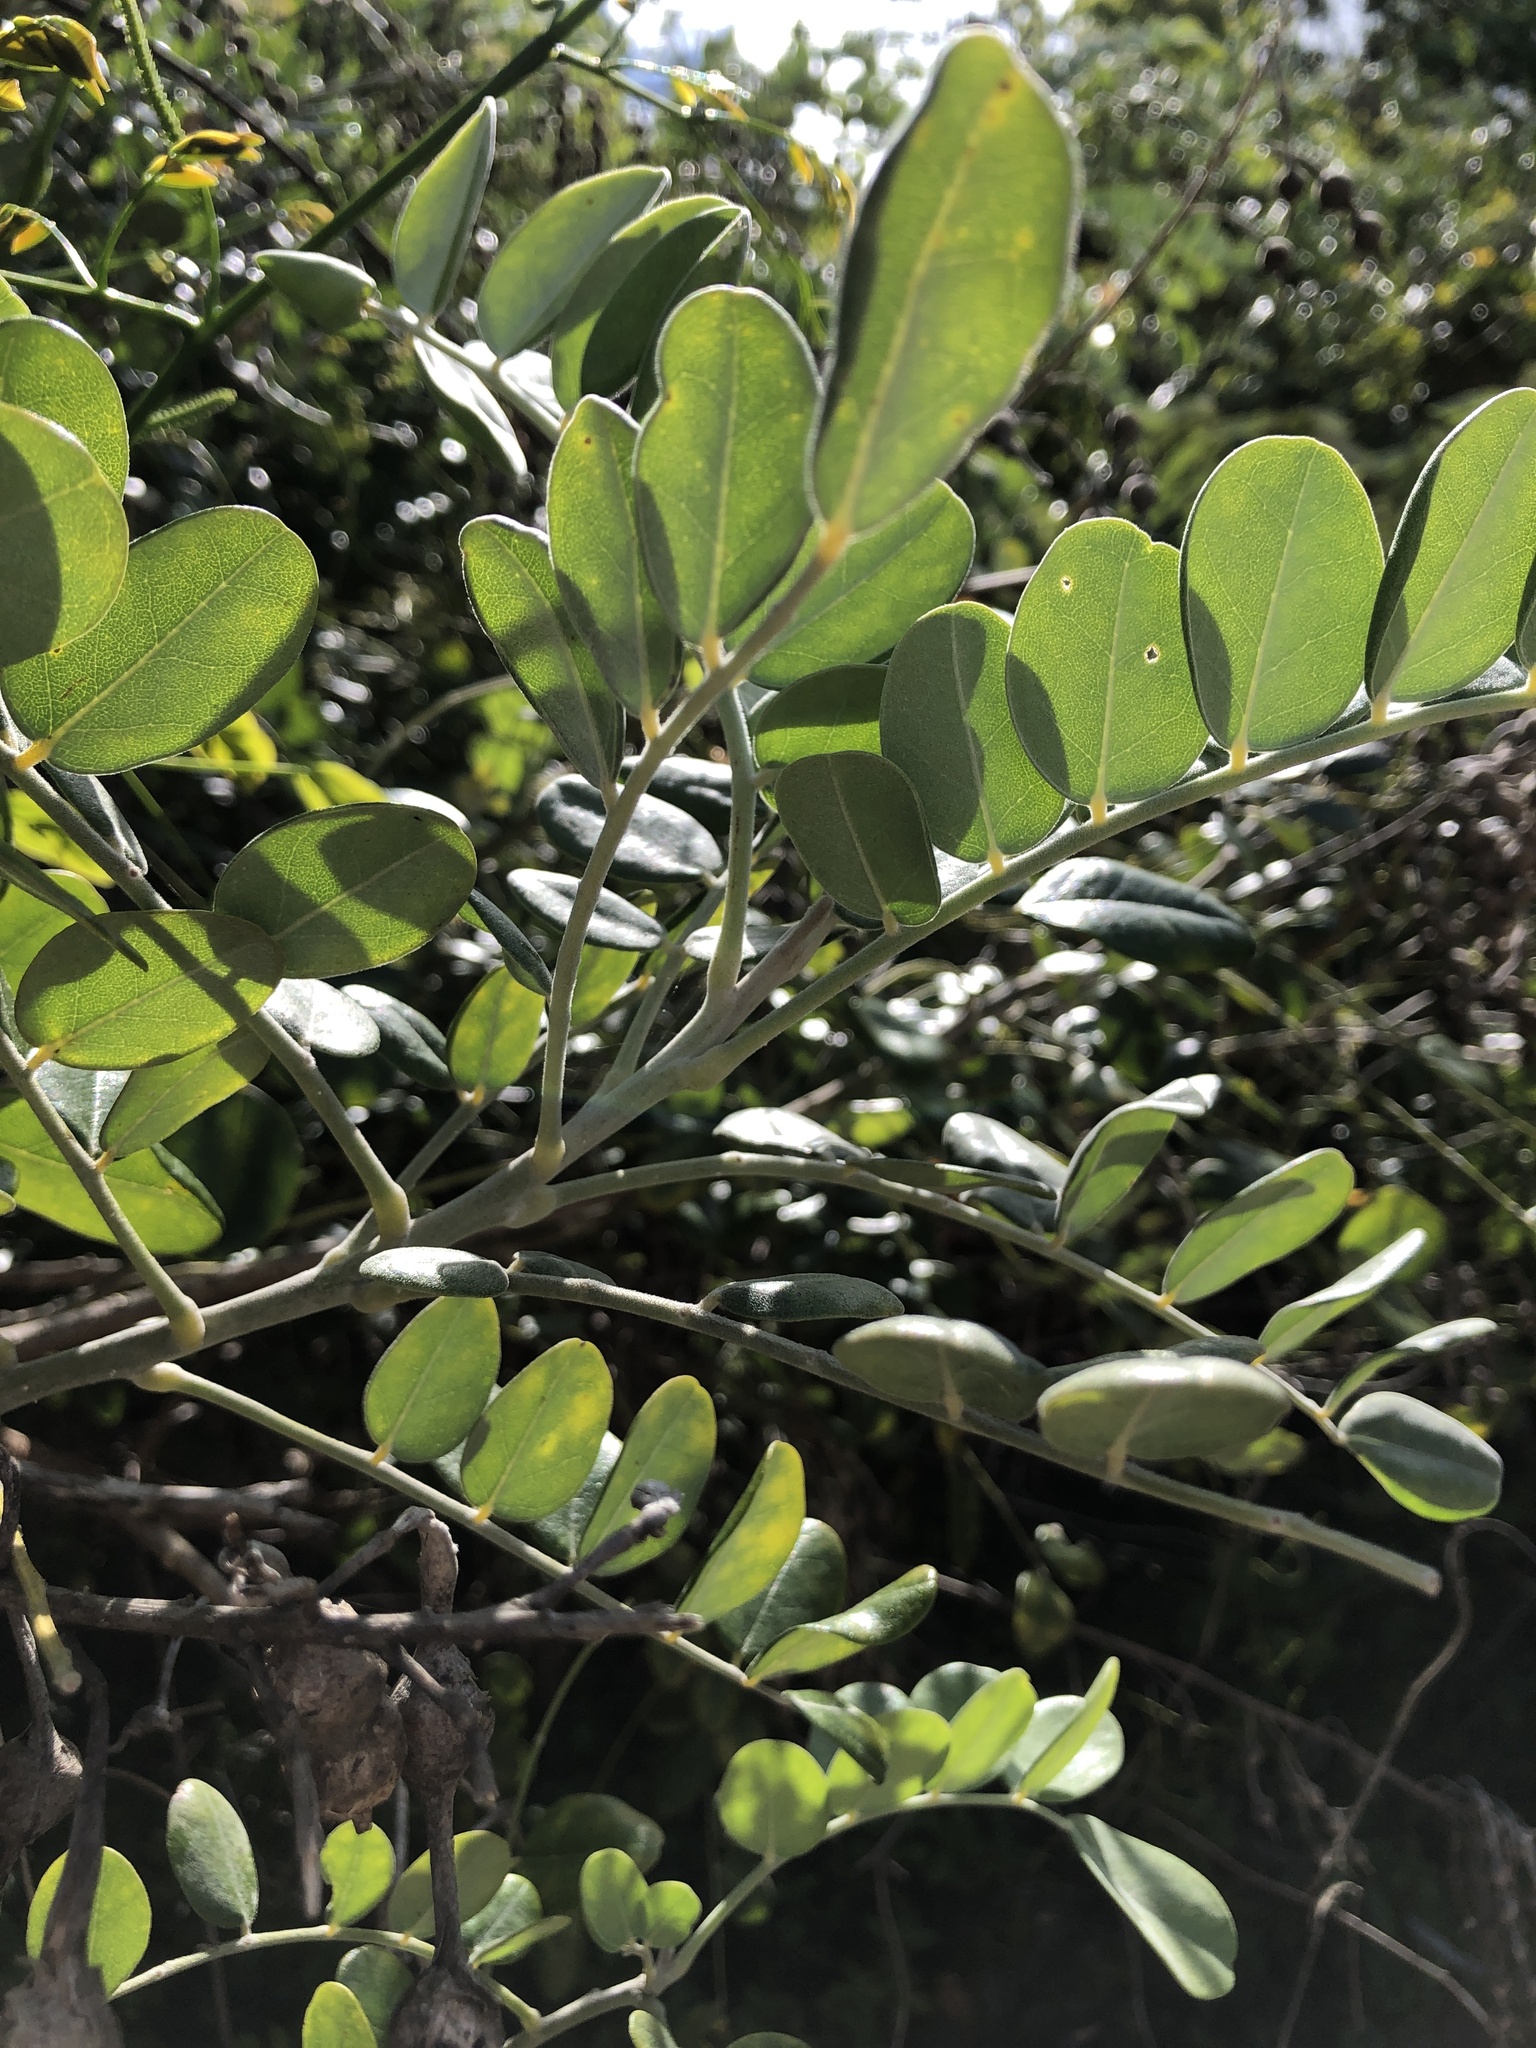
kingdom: Plantae
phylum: Tracheophyta
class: Magnoliopsida
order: Fabales
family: Fabaceae
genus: Sophora
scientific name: Sophora tomentosa
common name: Yellow necklacepod
